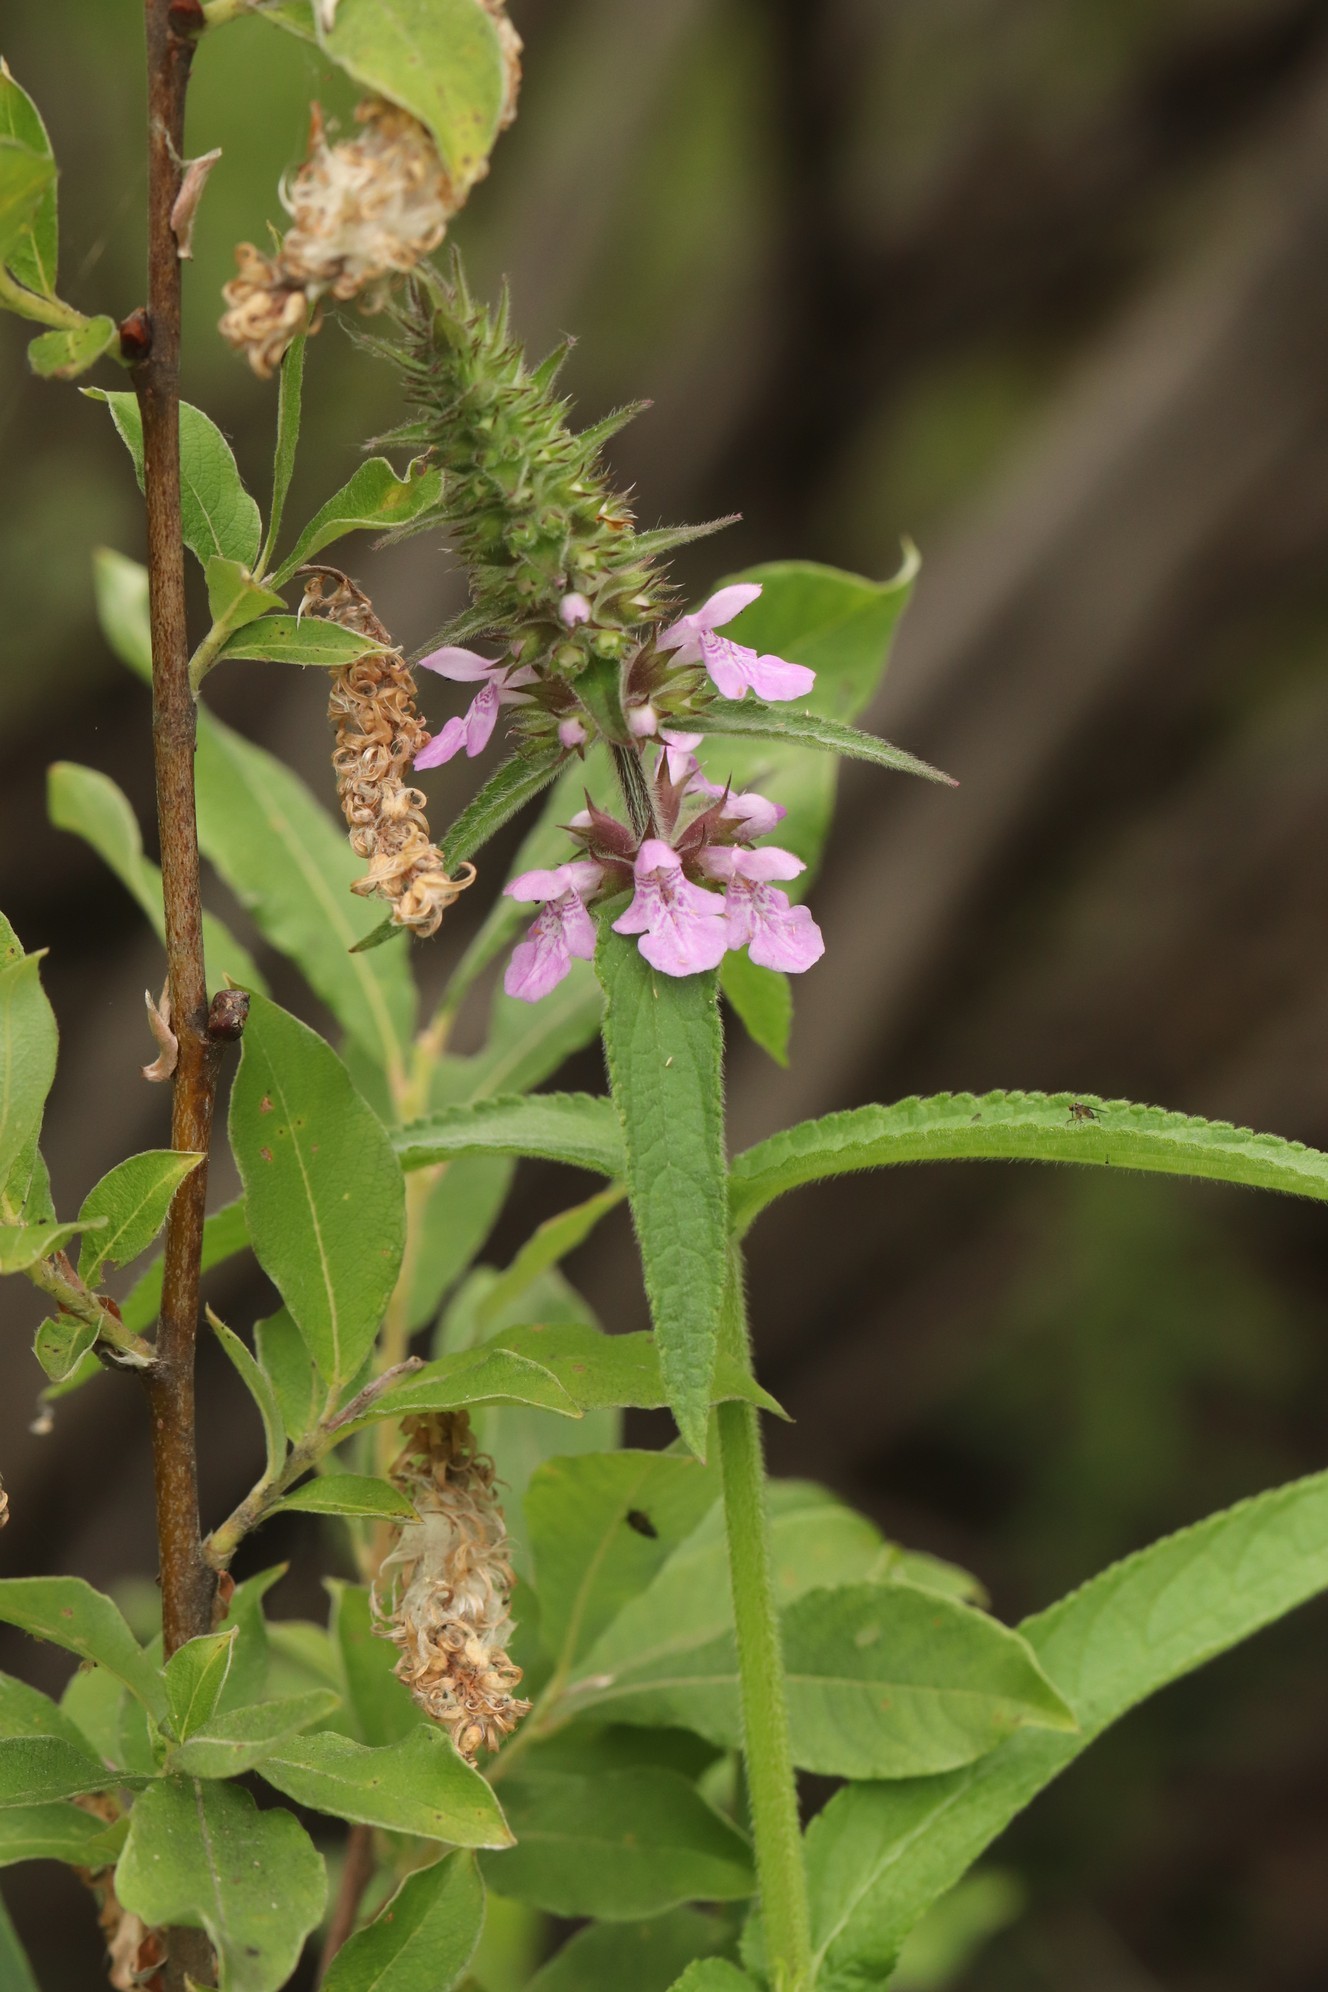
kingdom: Plantae
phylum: Tracheophyta
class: Magnoliopsida
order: Lamiales
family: Lamiaceae
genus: Stachys
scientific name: Stachys palustris
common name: Marsh woundwort
